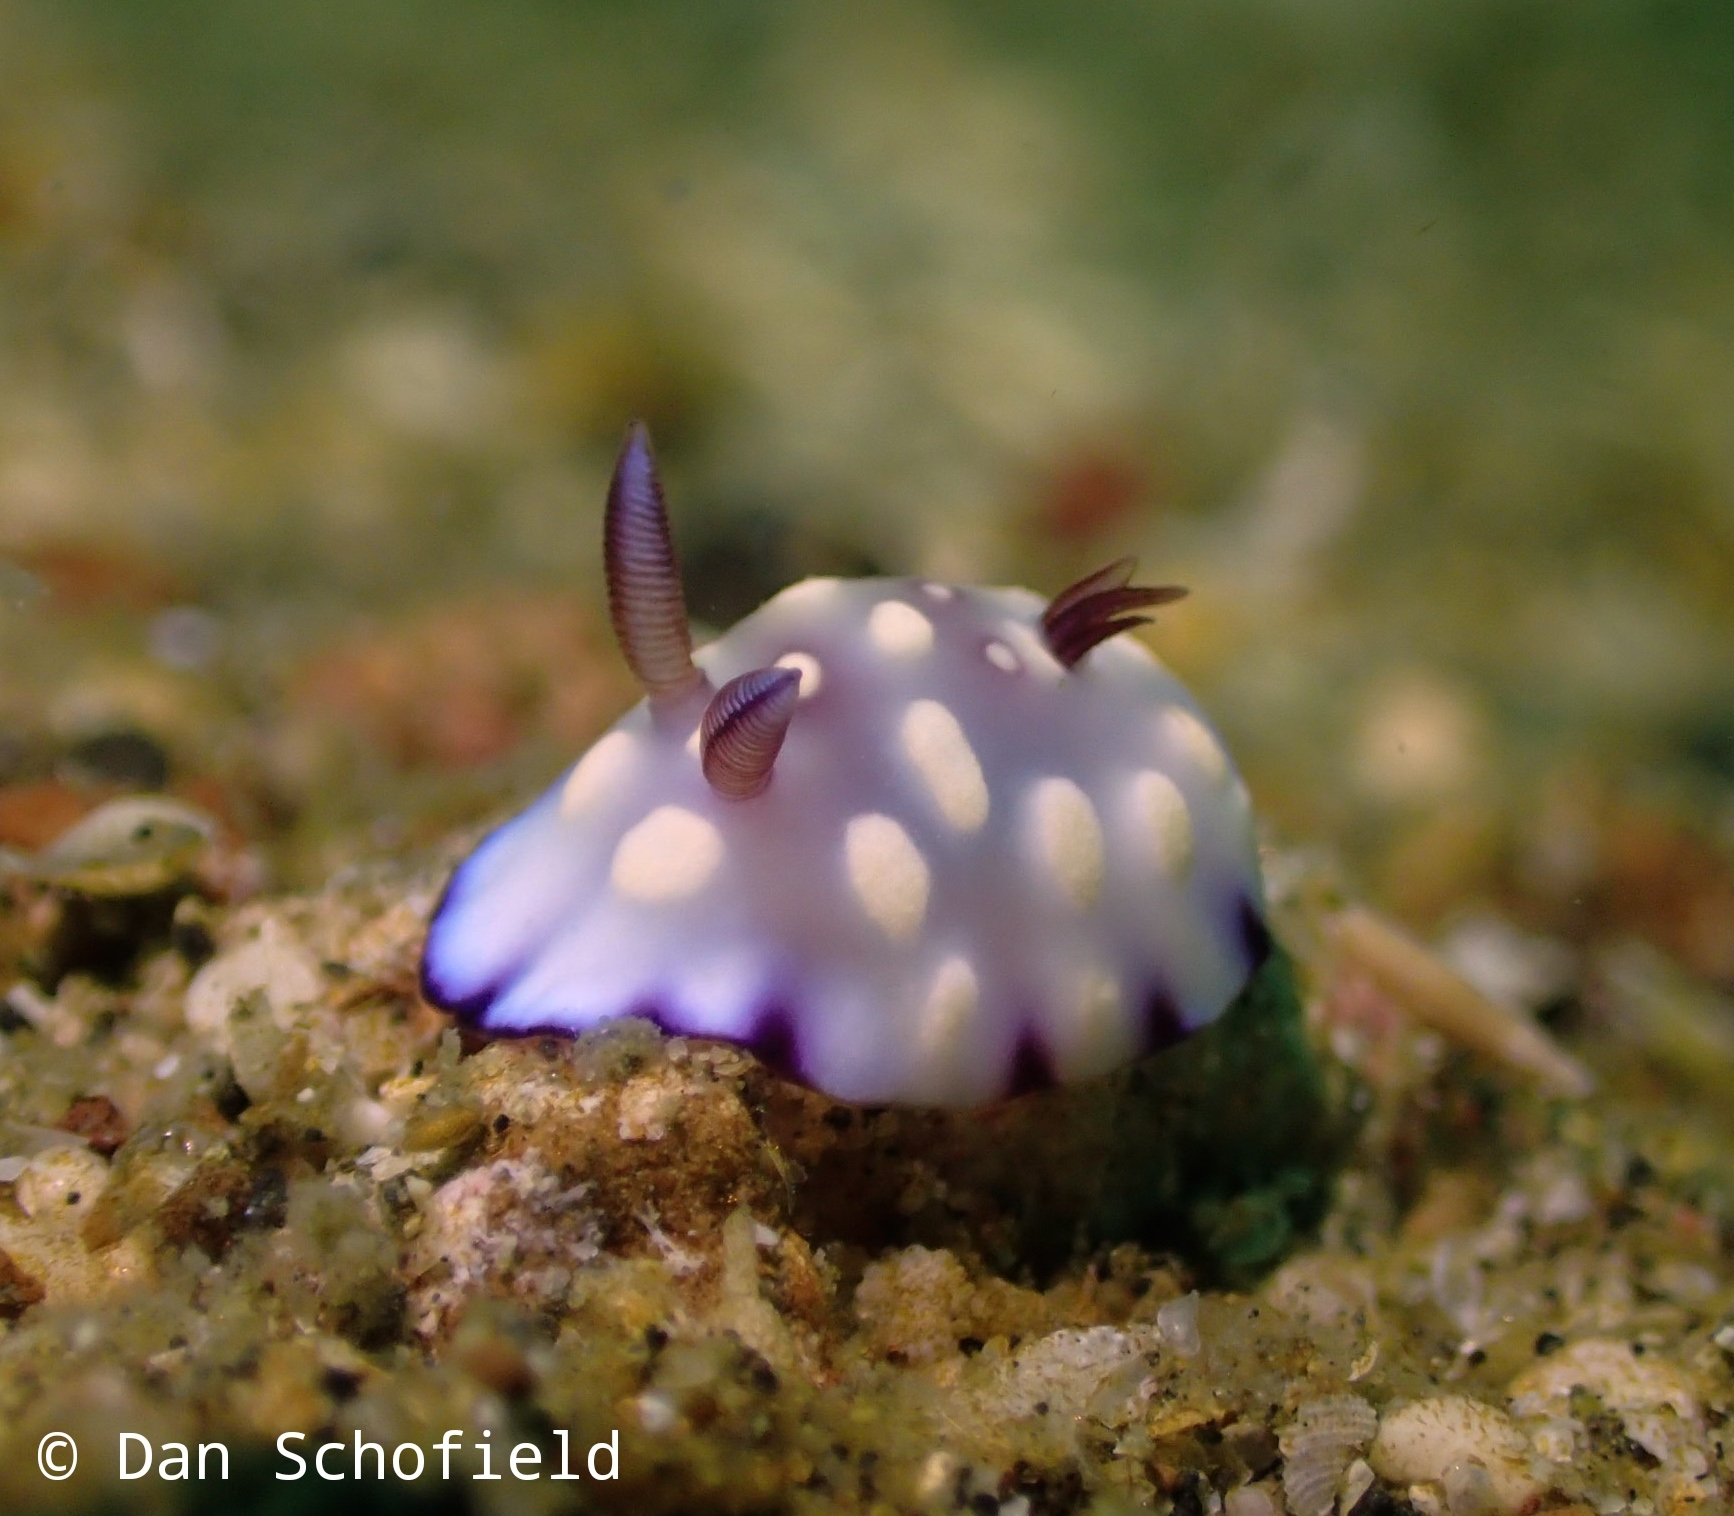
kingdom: Animalia
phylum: Mollusca
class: Gastropoda
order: Nudibranchia
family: Chromodorididae
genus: Goniobranchus
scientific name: Goniobranchus hintuanensis
